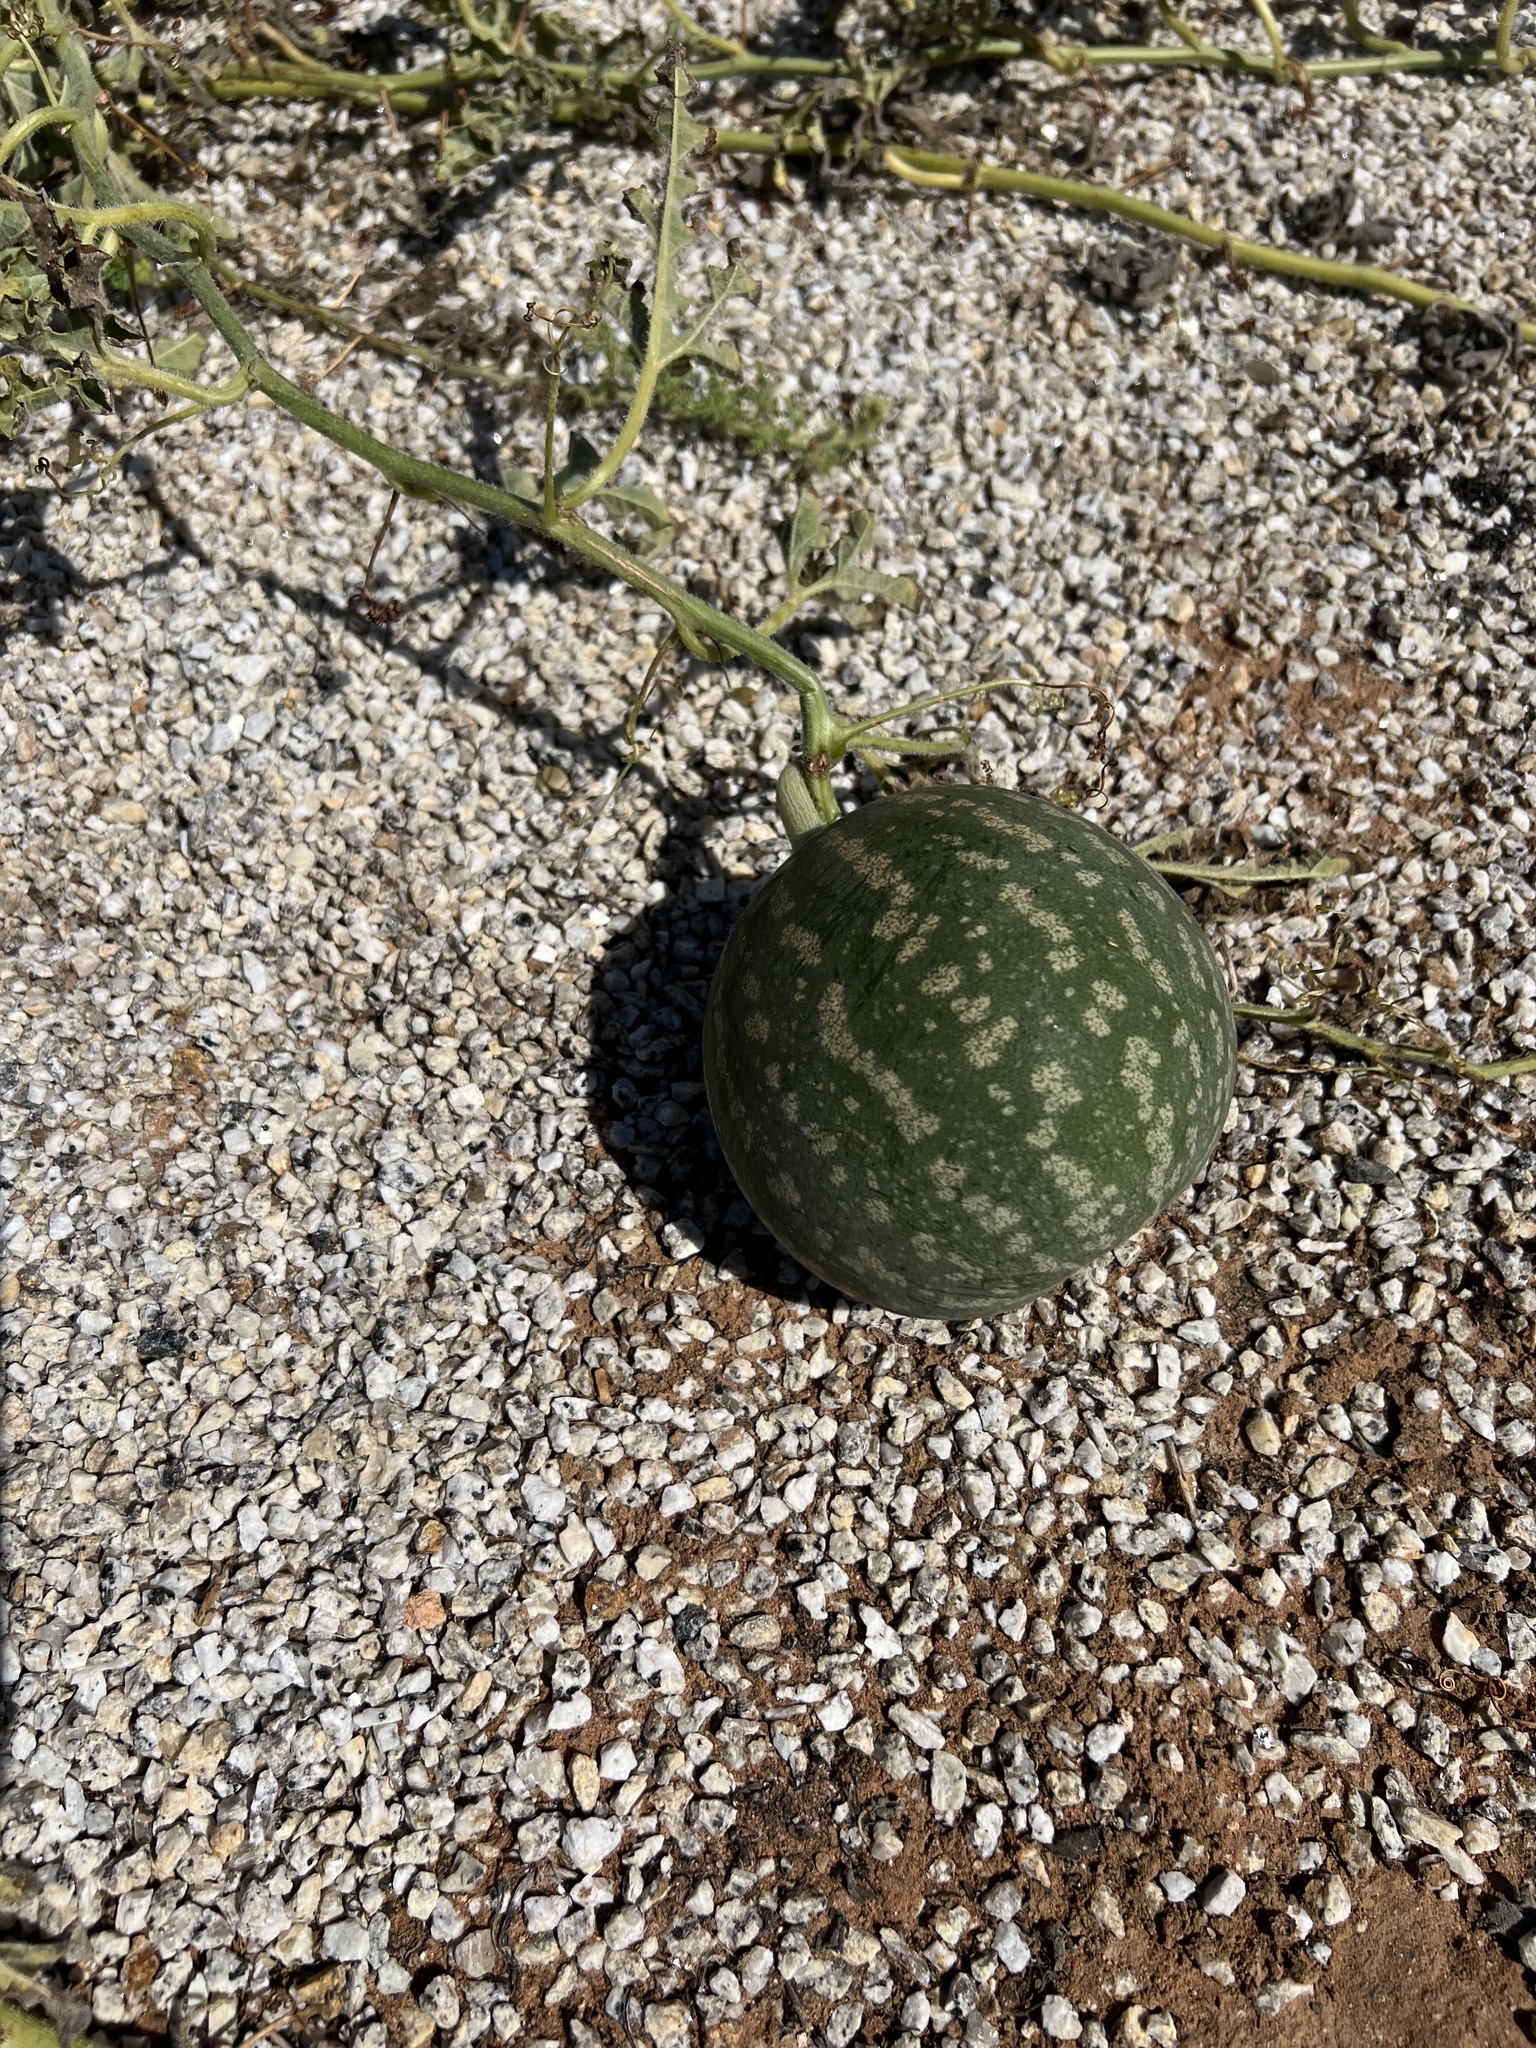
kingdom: Plantae
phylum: Tracheophyta
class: Magnoliopsida
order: Cucurbitales
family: Cucurbitaceae
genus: Citrullus
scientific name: Citrullus amarus
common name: Fodder-melon
